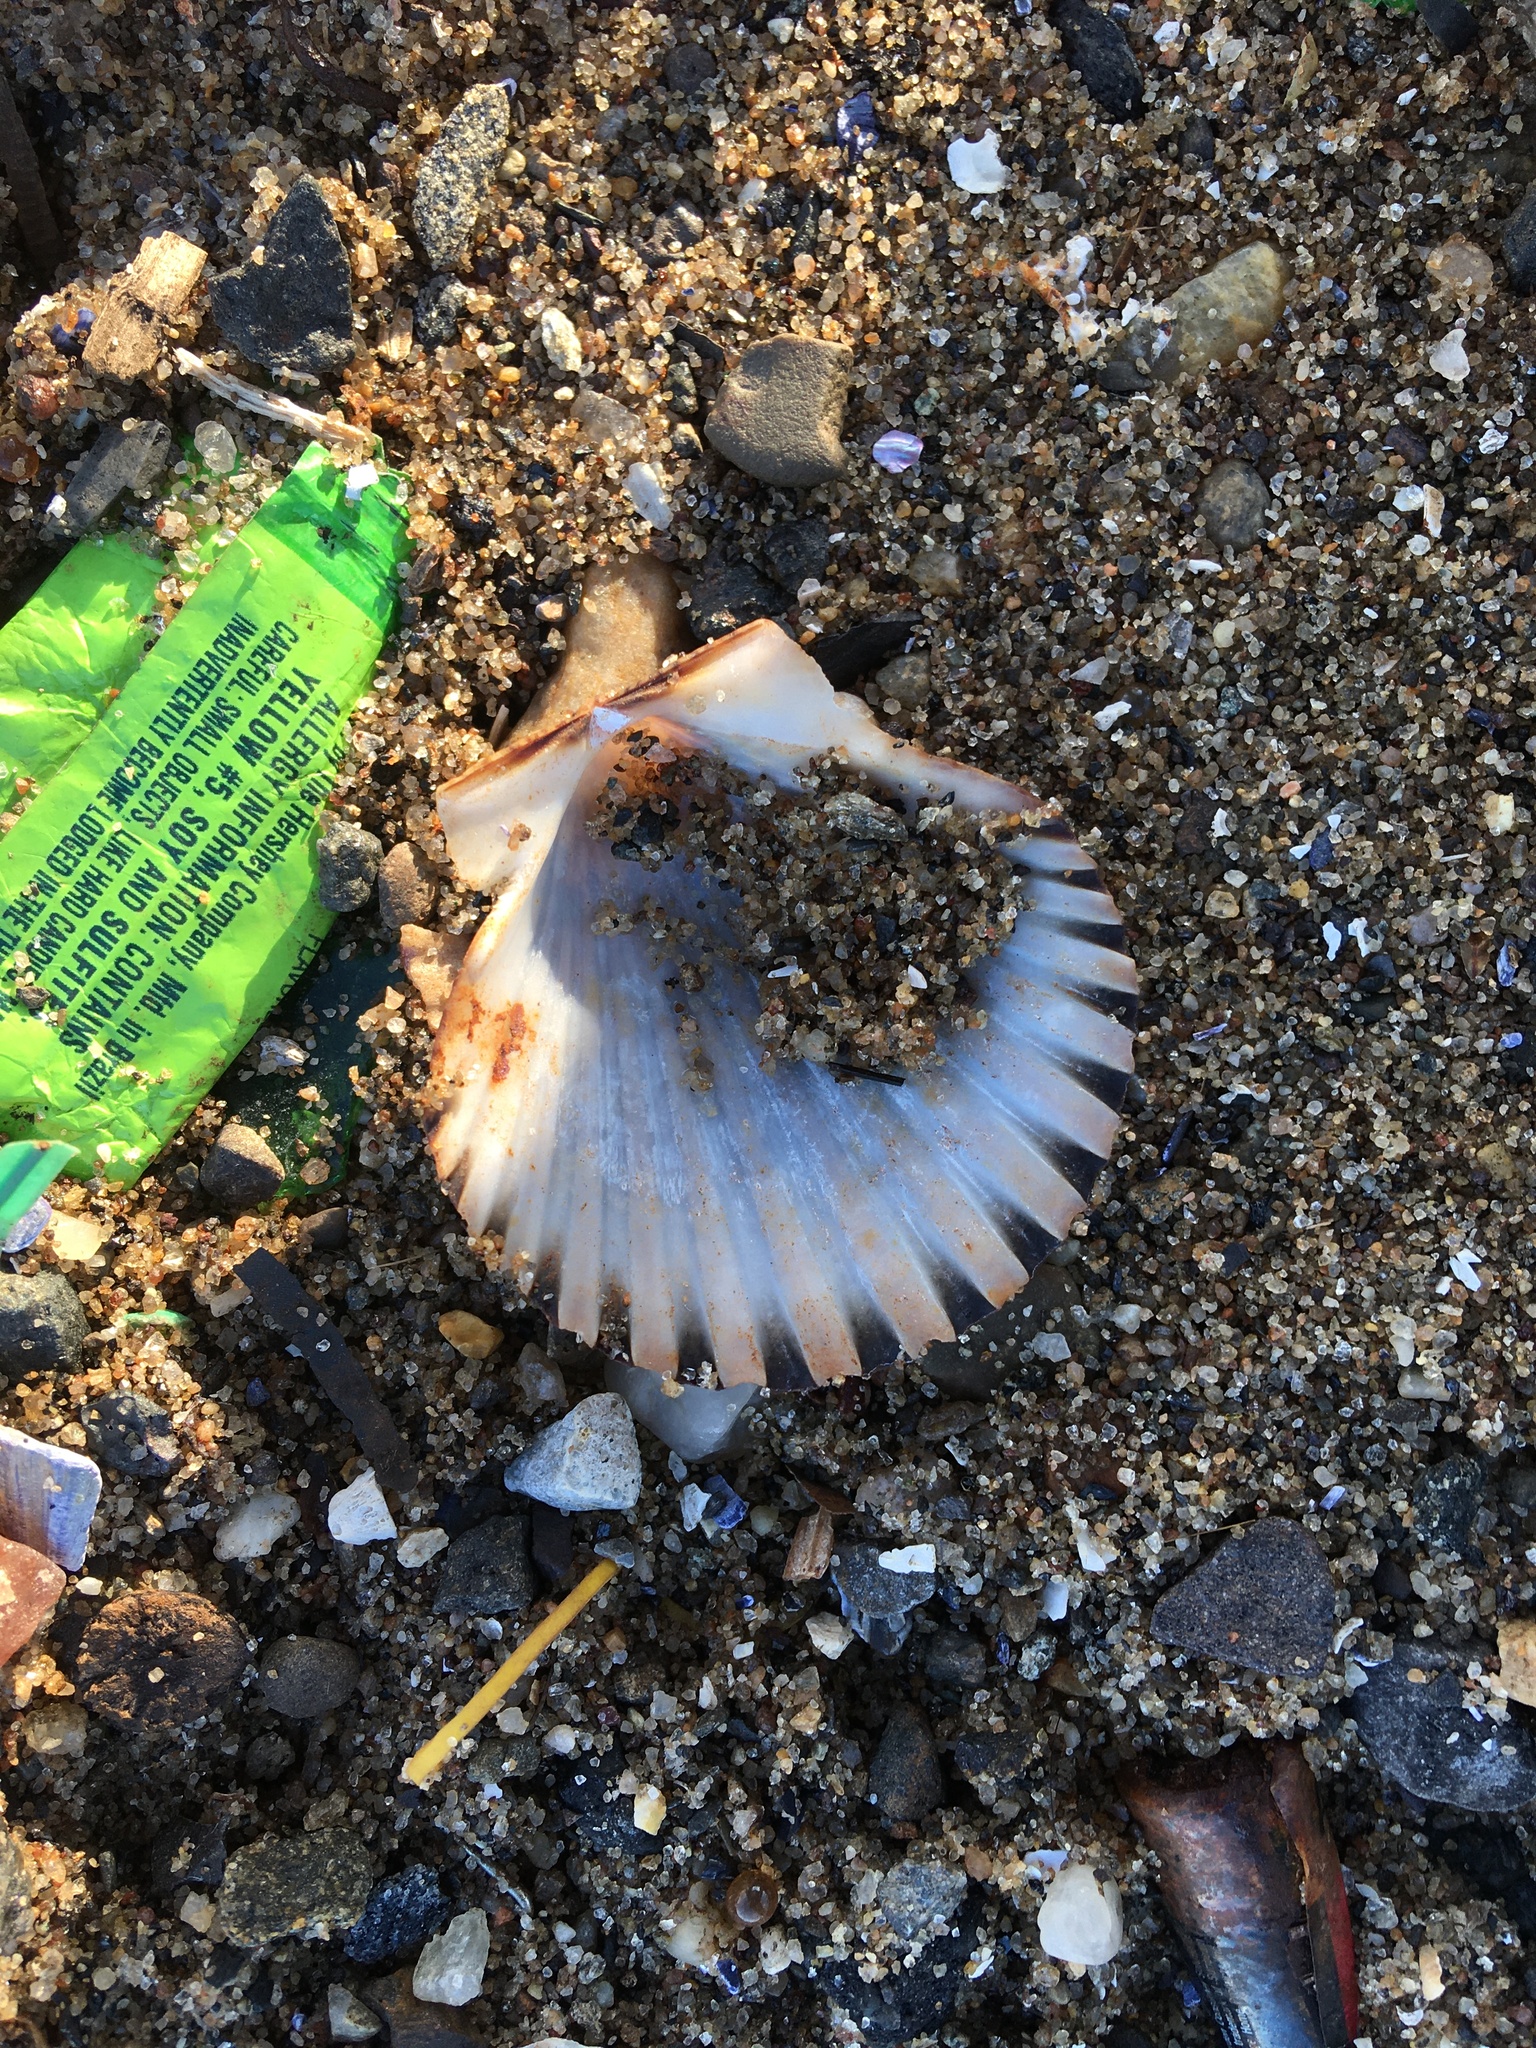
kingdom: Animalia
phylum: Mollusca
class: Bivalvia
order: Pectinida
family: Pectinidae
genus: Argopecten
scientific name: Argopecten irradians
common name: Atlantic bay scallop
